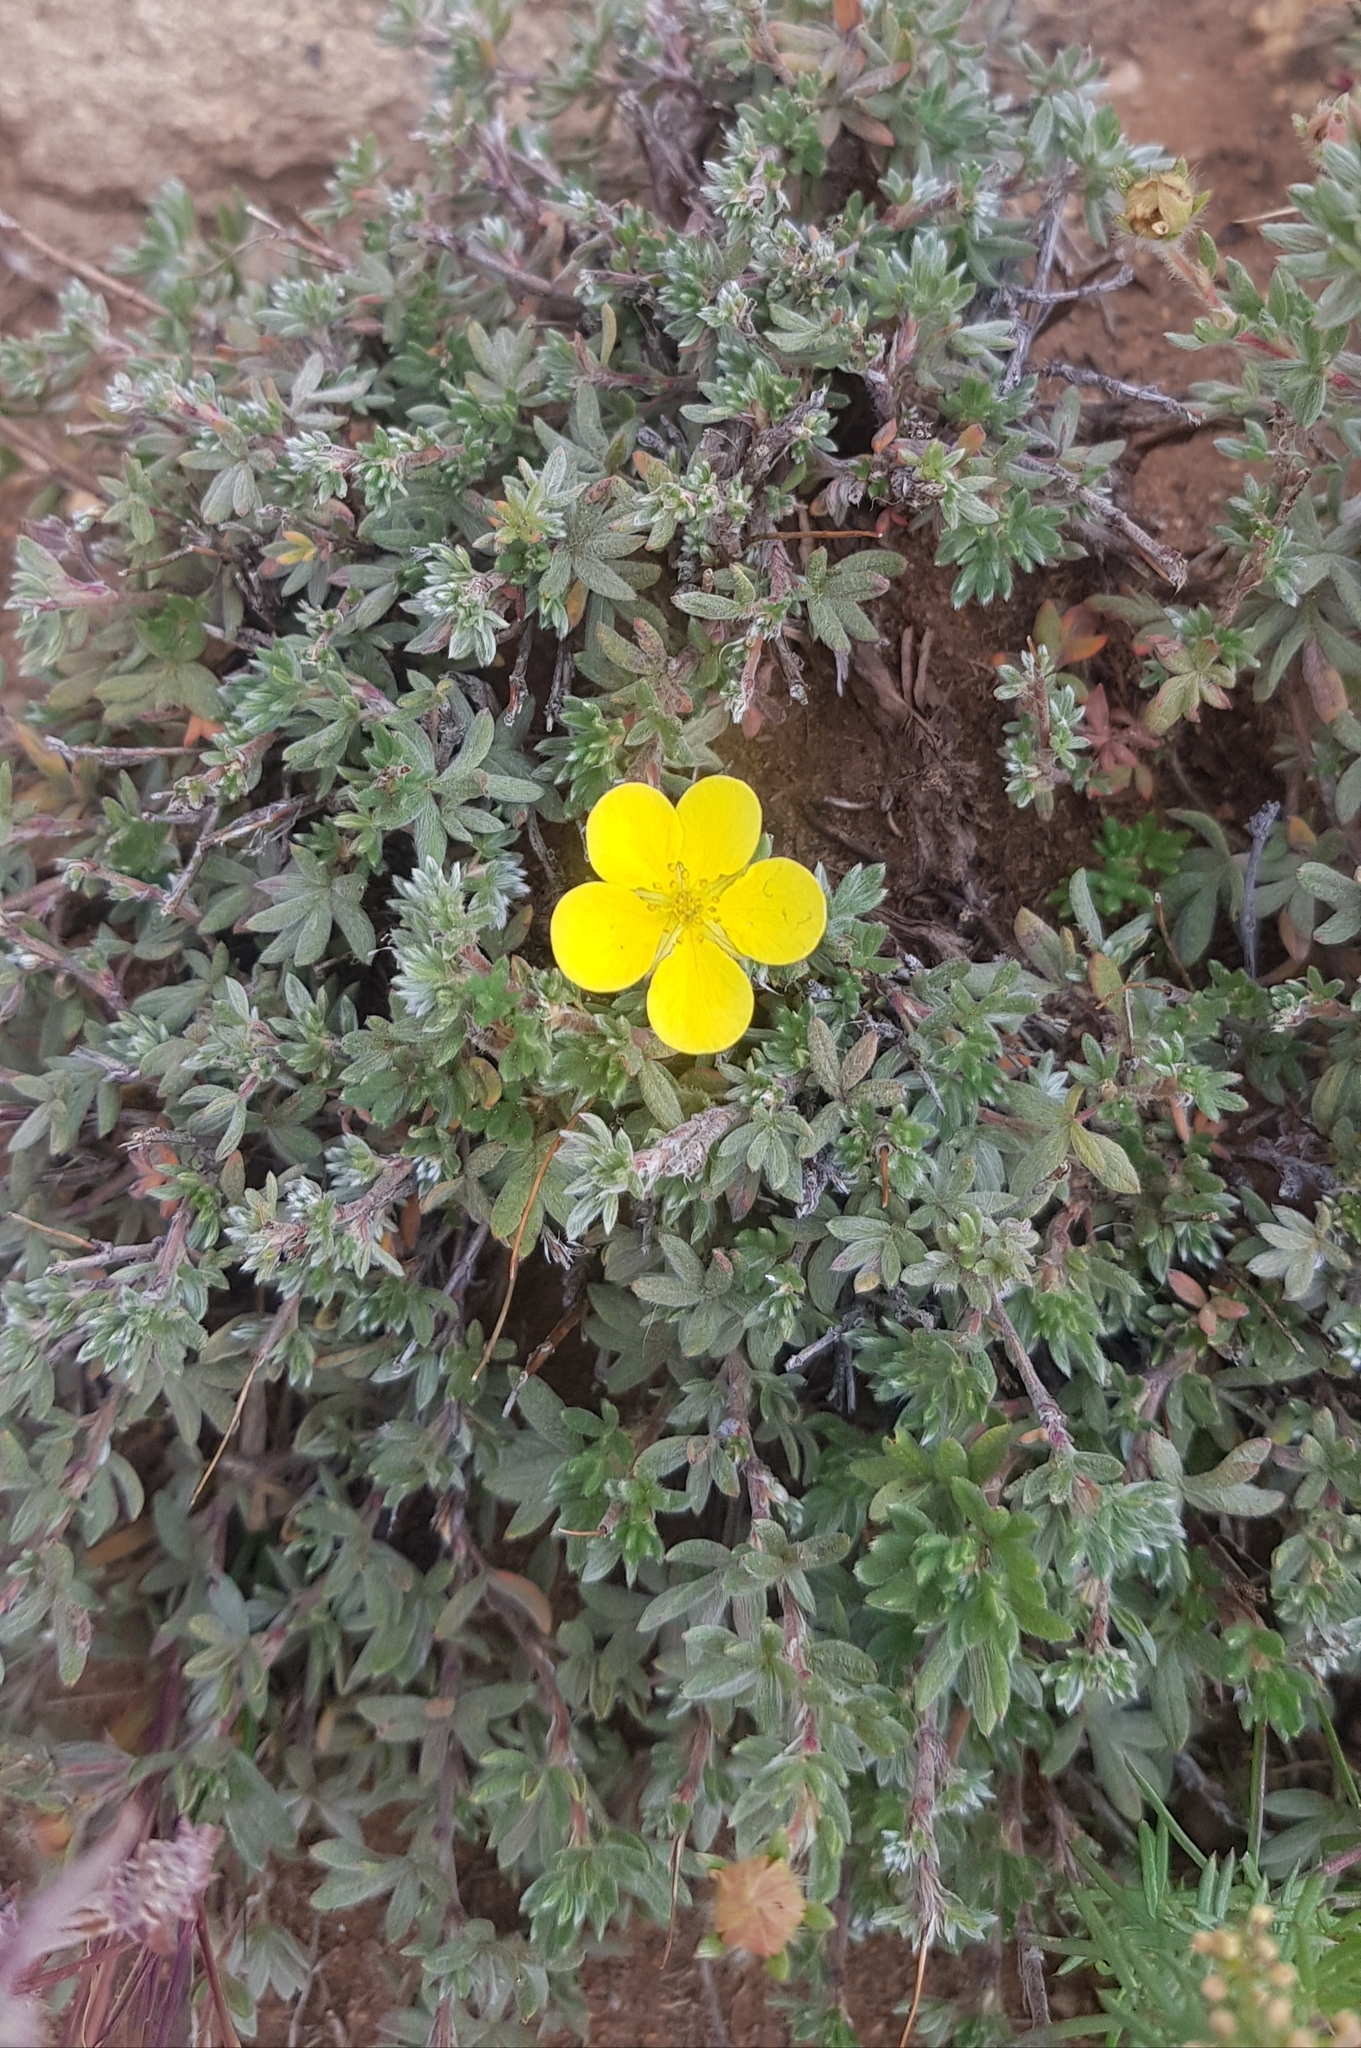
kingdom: Plantae
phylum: Tracheophyta
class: Magnoliopsida
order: Rosales
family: Rosaceae
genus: Dasiphora
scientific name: Dasiphora fruticosa
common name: Shrubby cinquefoil
